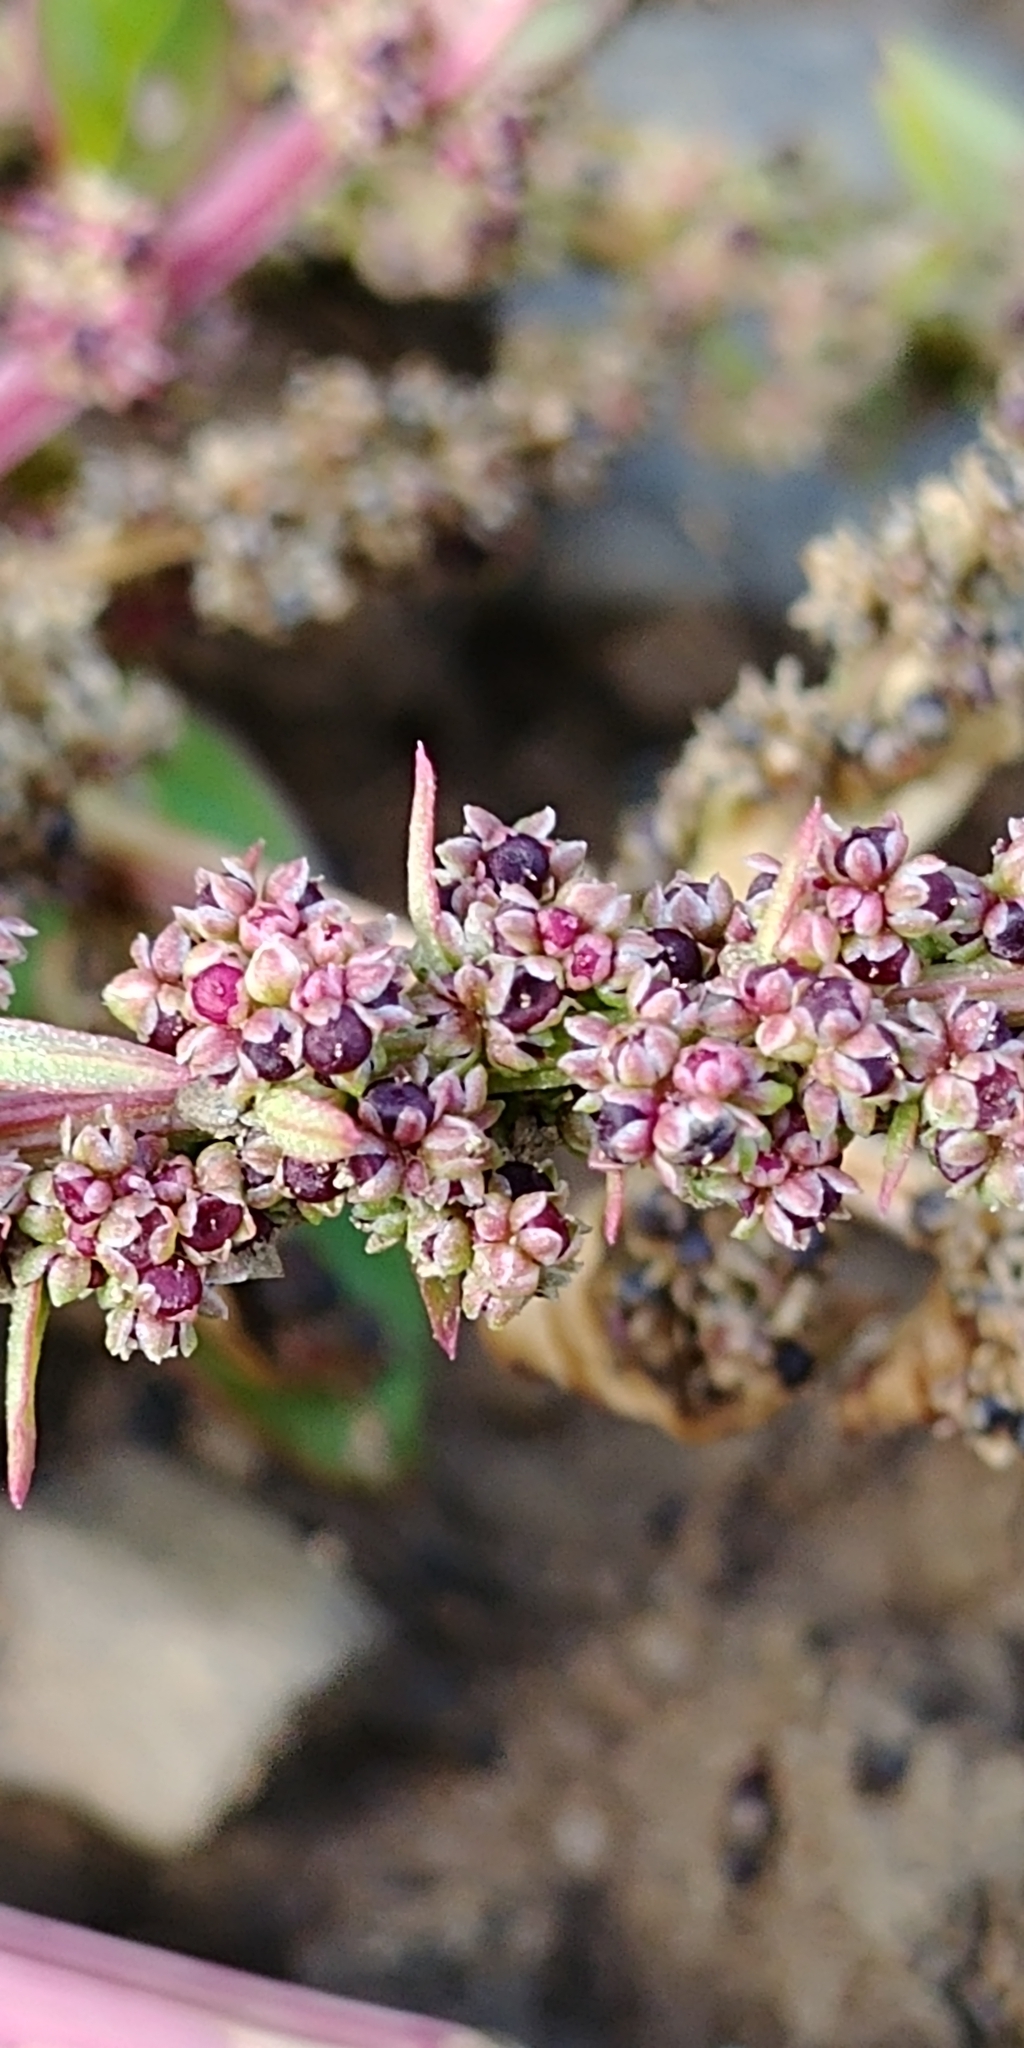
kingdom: Plantae
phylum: Tracheophyta
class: Magnoliopsida
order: Caryophyllales
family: Amaranthaceae
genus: Lipandra
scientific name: Lipandra polysperma
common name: Many-seed goosefoot
